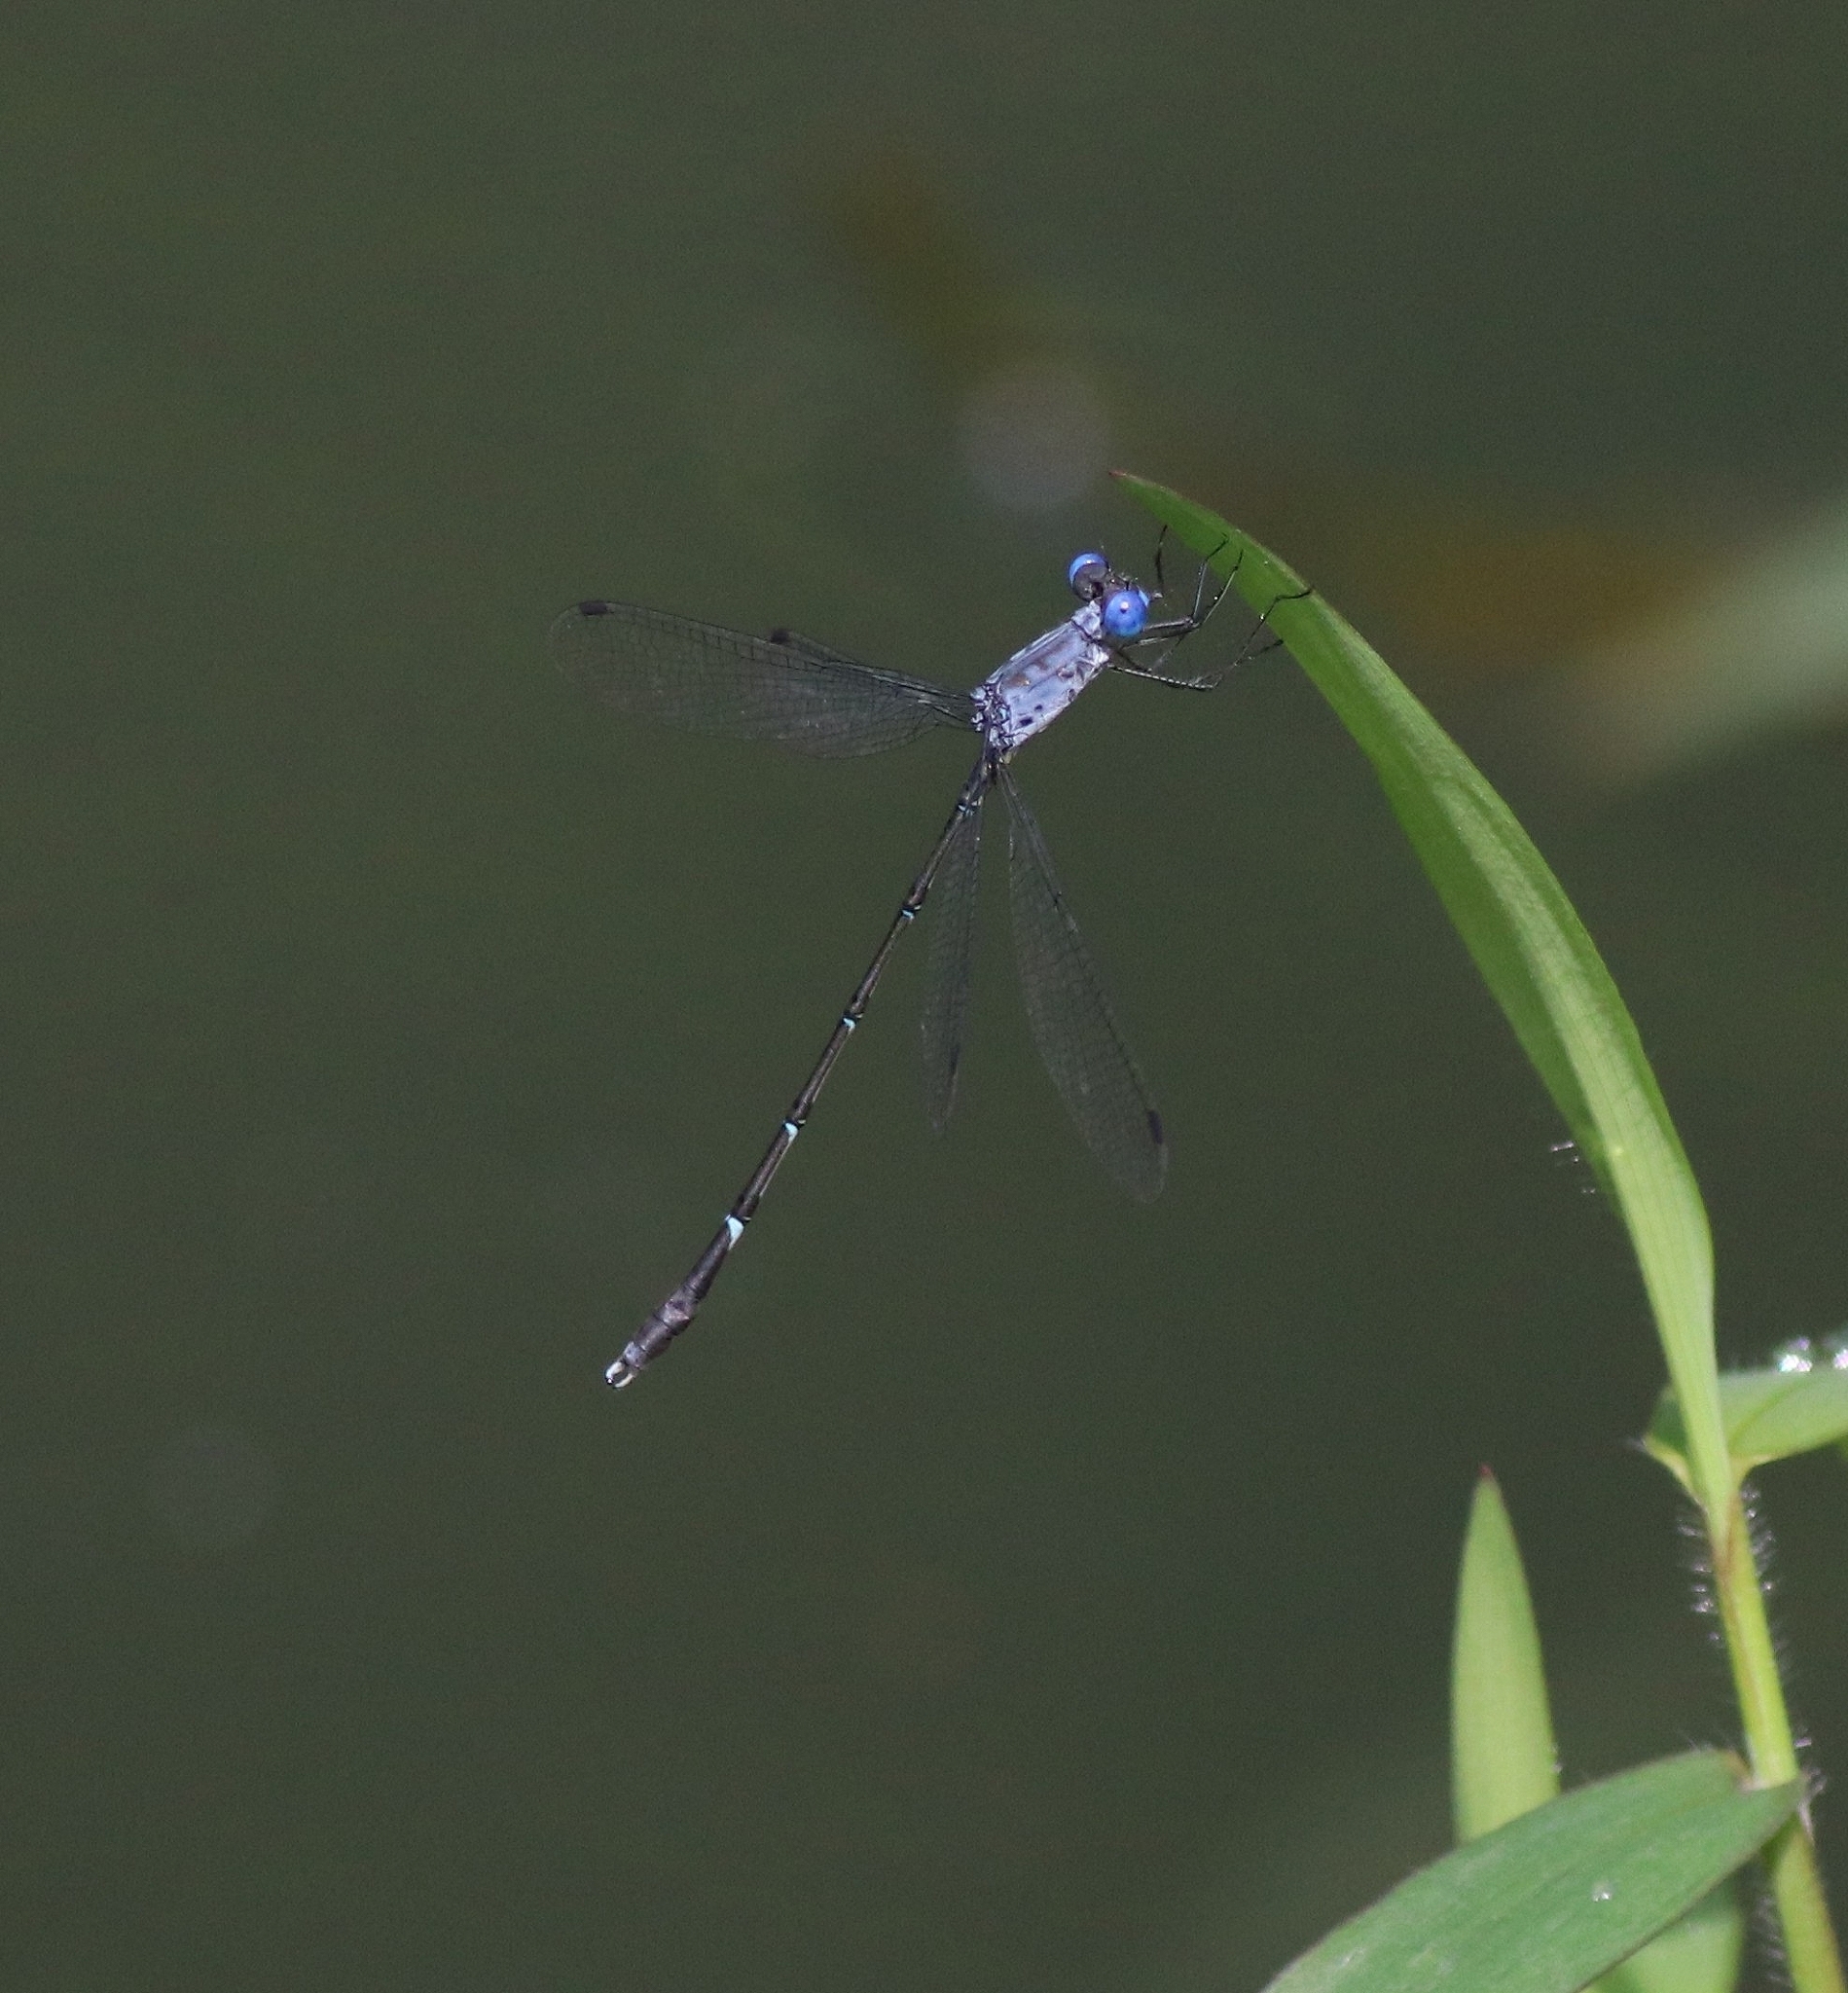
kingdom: Animalia
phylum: Arthropoda
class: Insecta
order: Odonata
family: Lestidae
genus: Lestes
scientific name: Lestes dorothea
